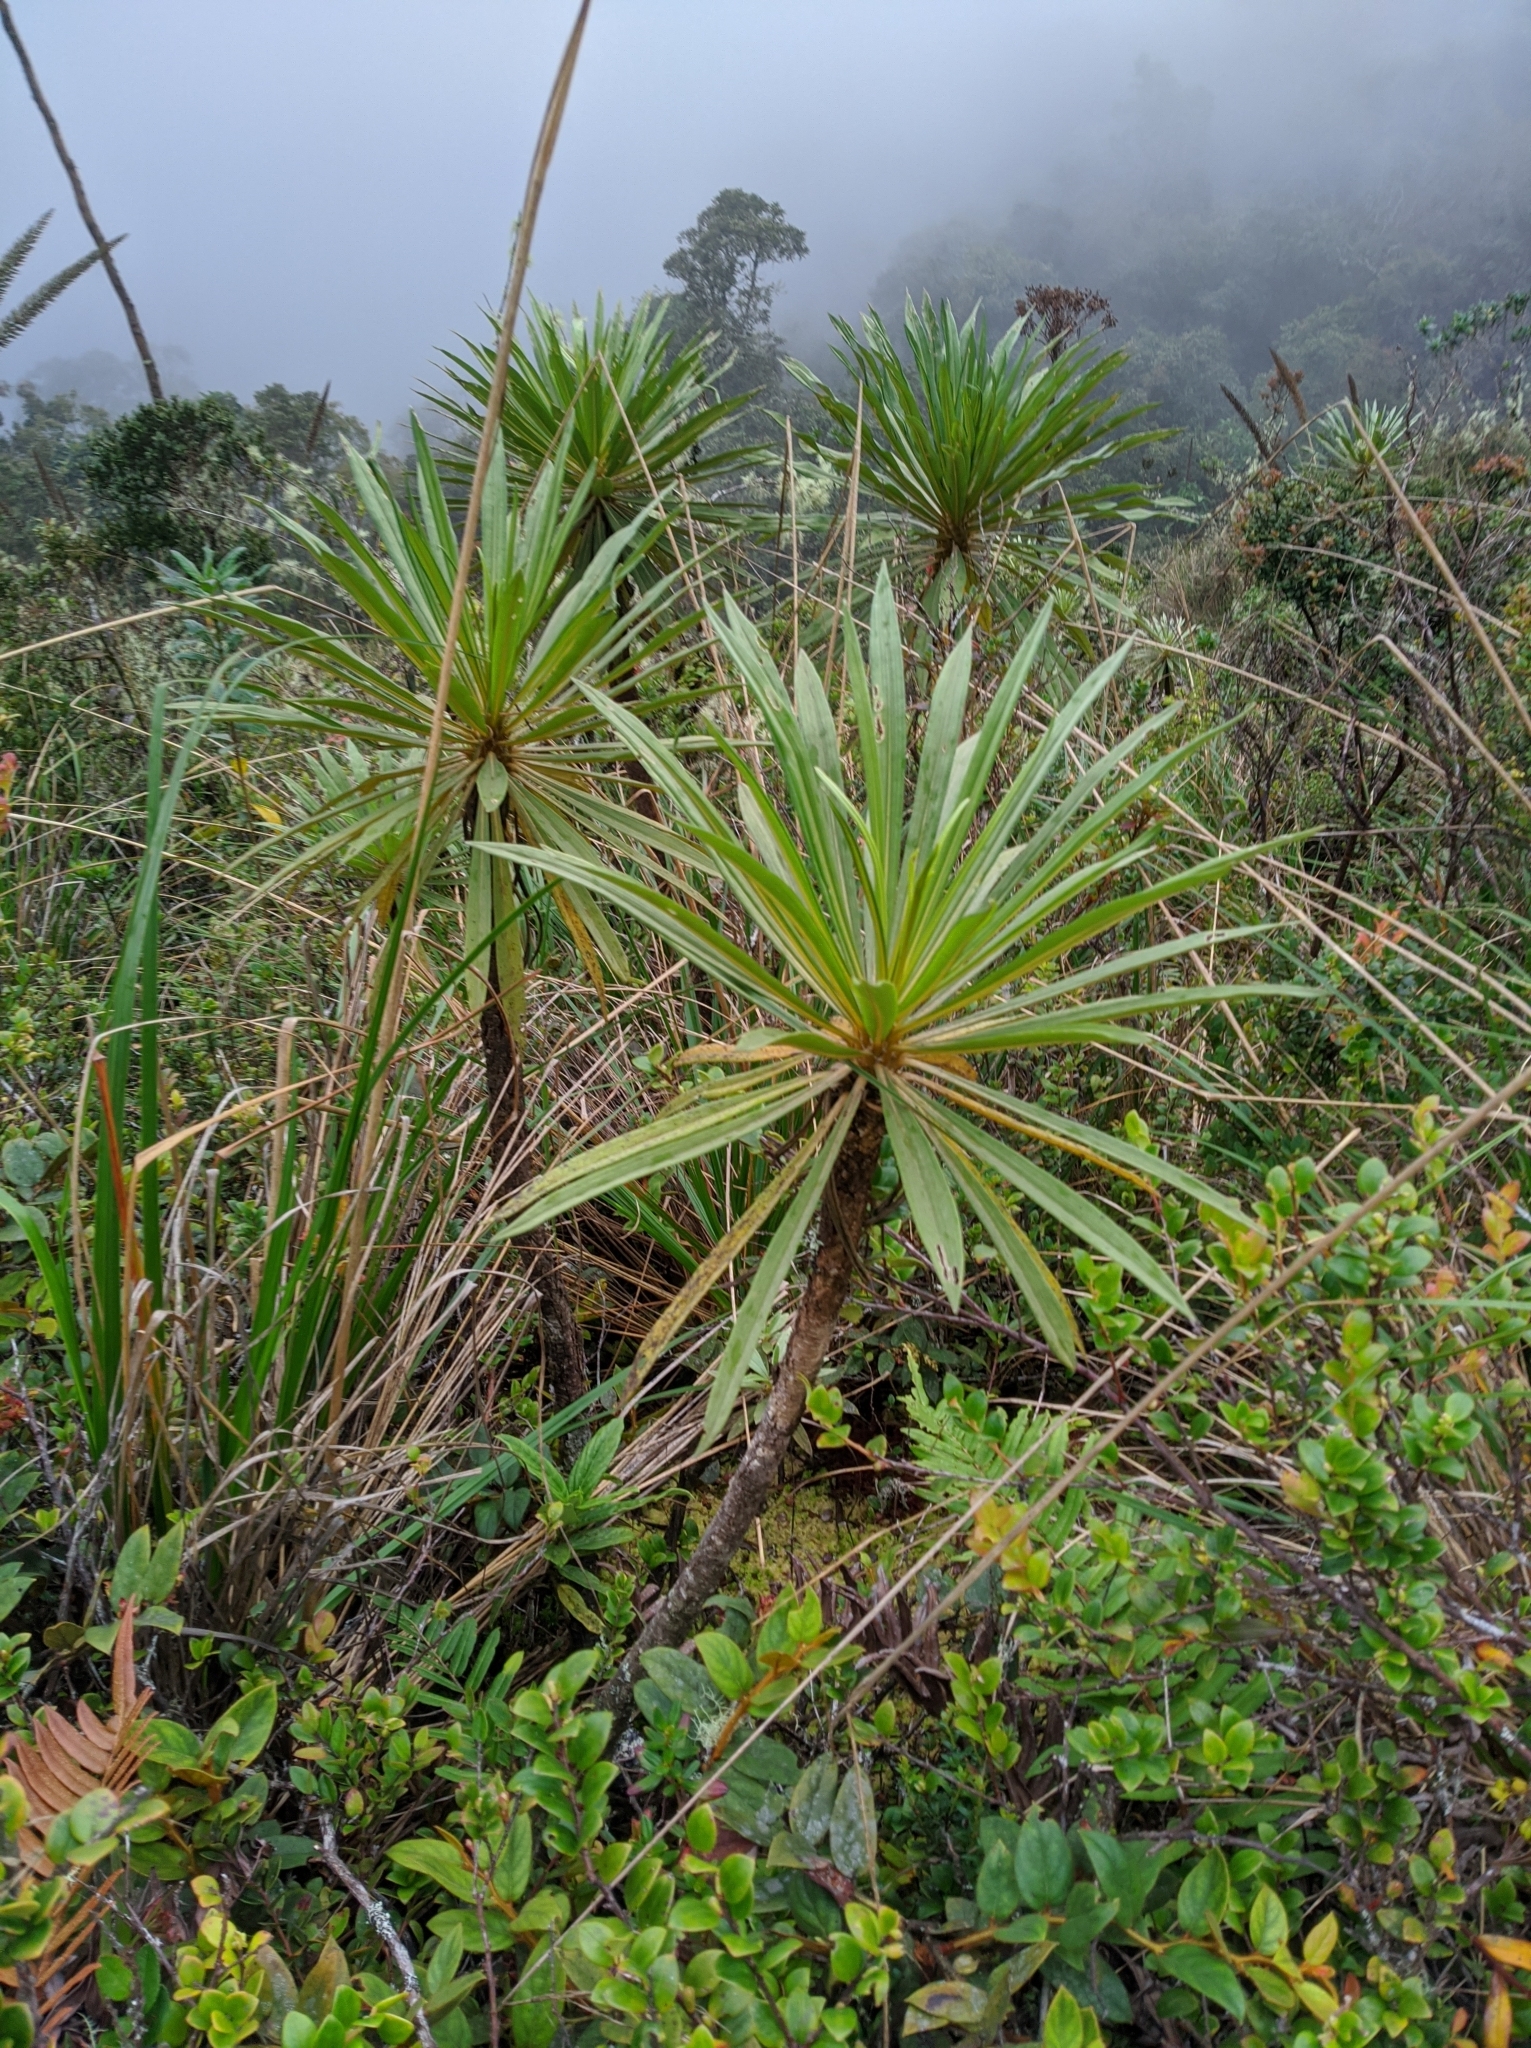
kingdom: Plantae
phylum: Tracheophyta
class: Magnoliopsida
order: Asterales
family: Asteraceae
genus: Espeletia
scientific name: Espeletia paltonioides
